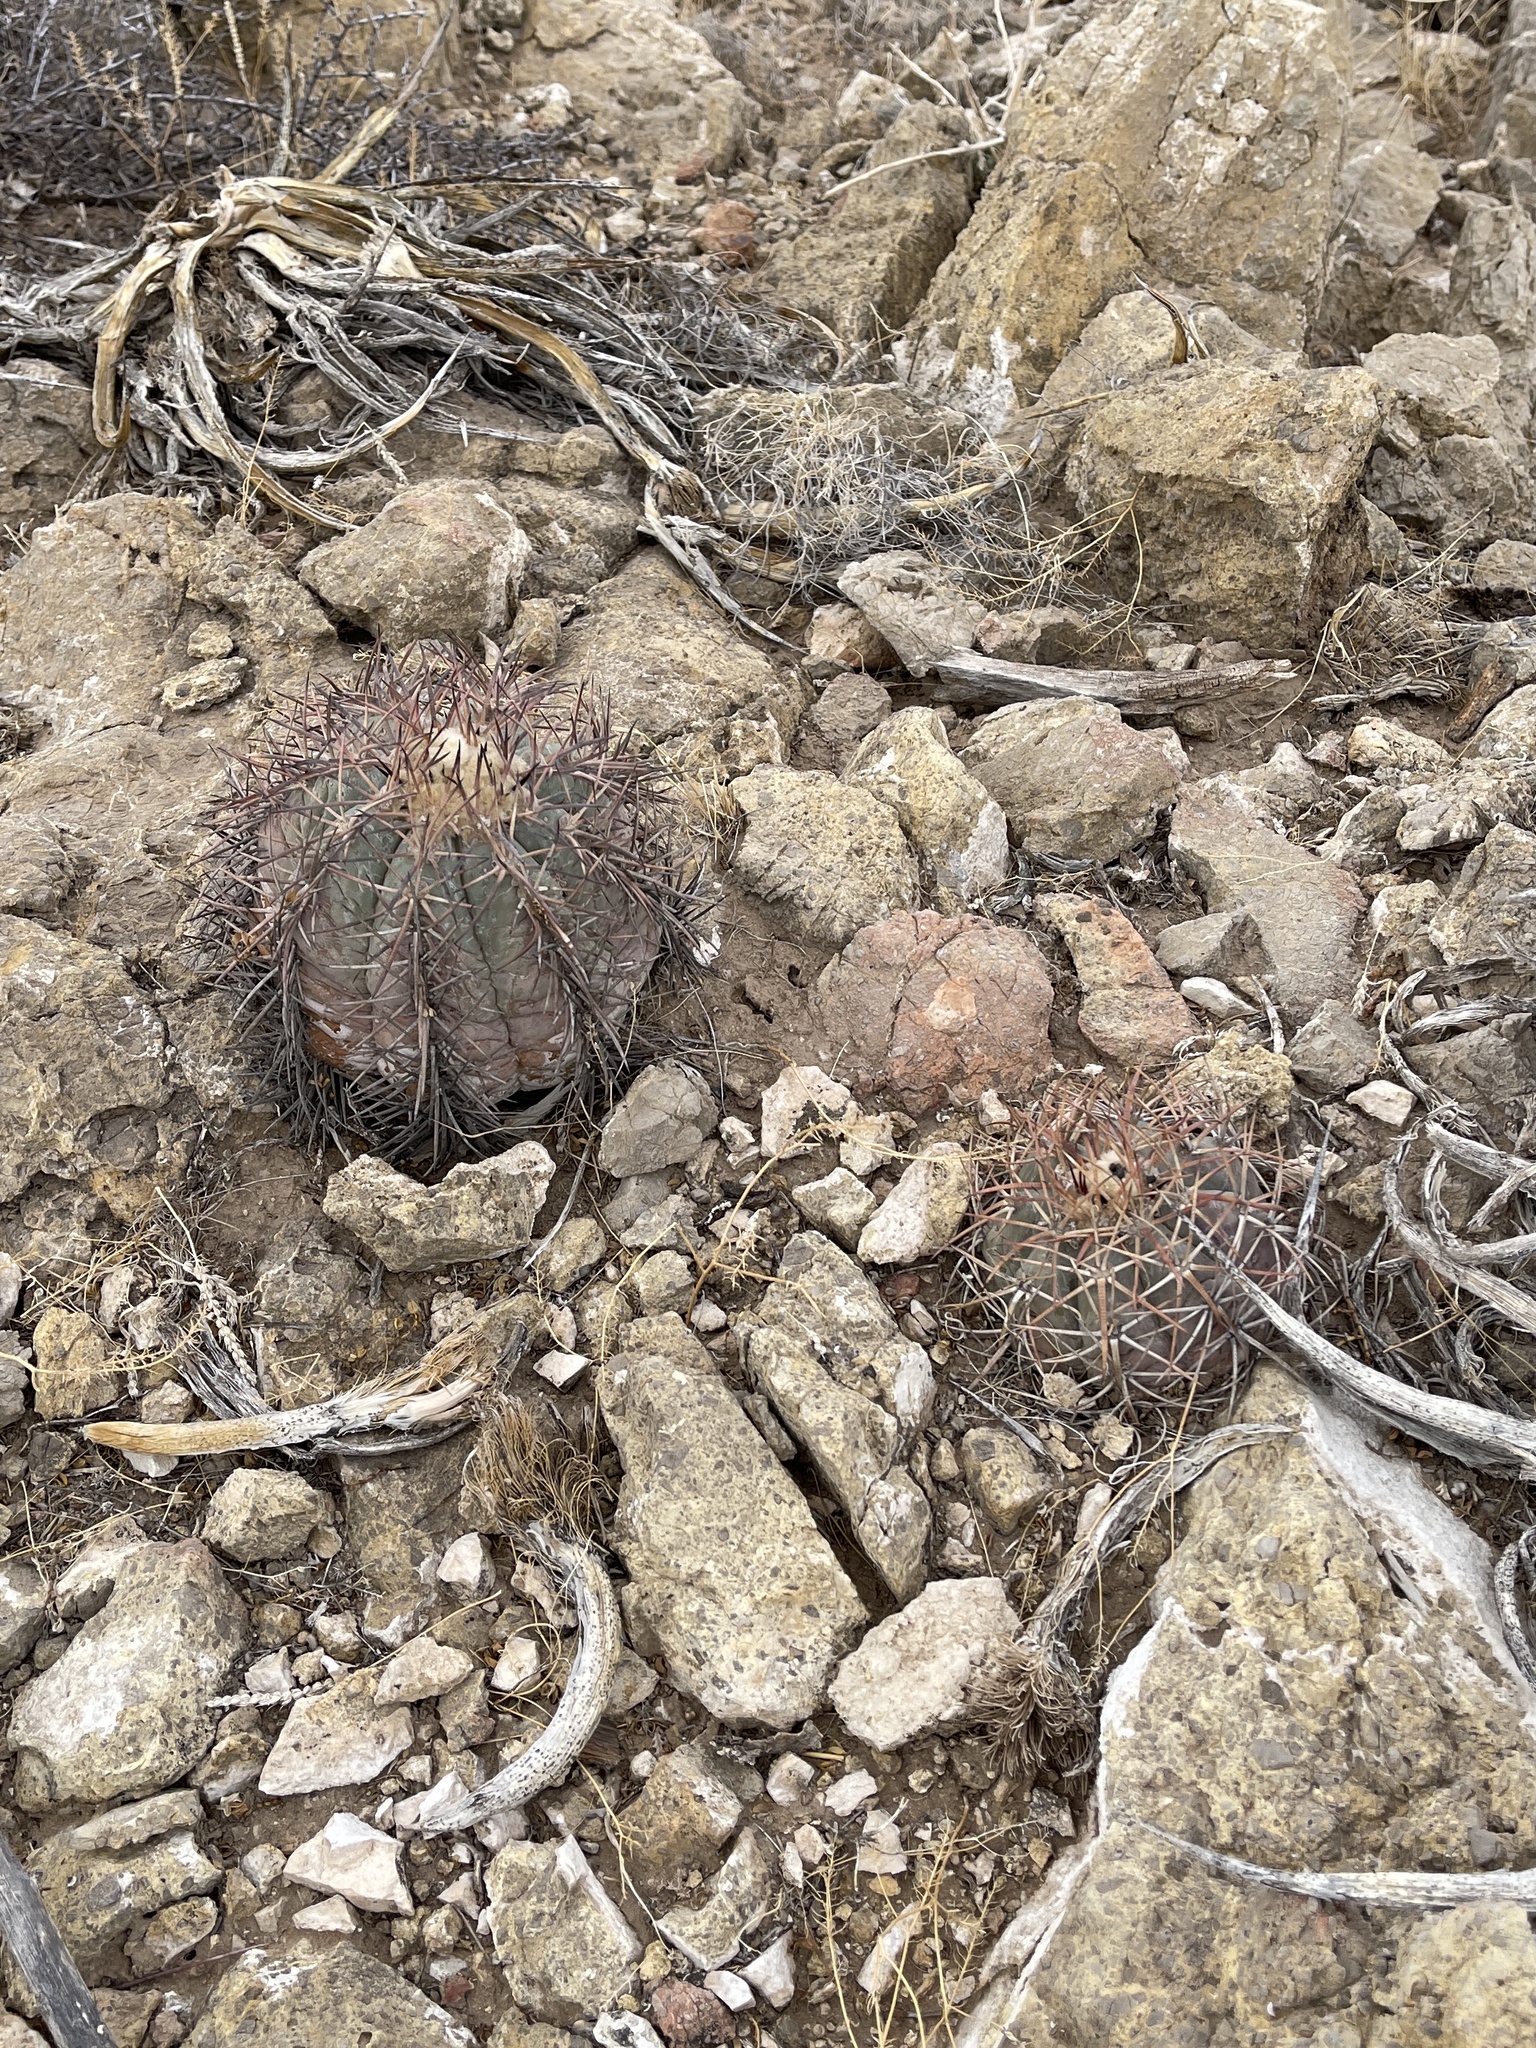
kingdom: Plantae
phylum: Tracheophyta
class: Magnoliopsida
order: Caryophyllales
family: Cactaceae
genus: Echinocactus
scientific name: Echinocactus horizonthalonius
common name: Devilshead
